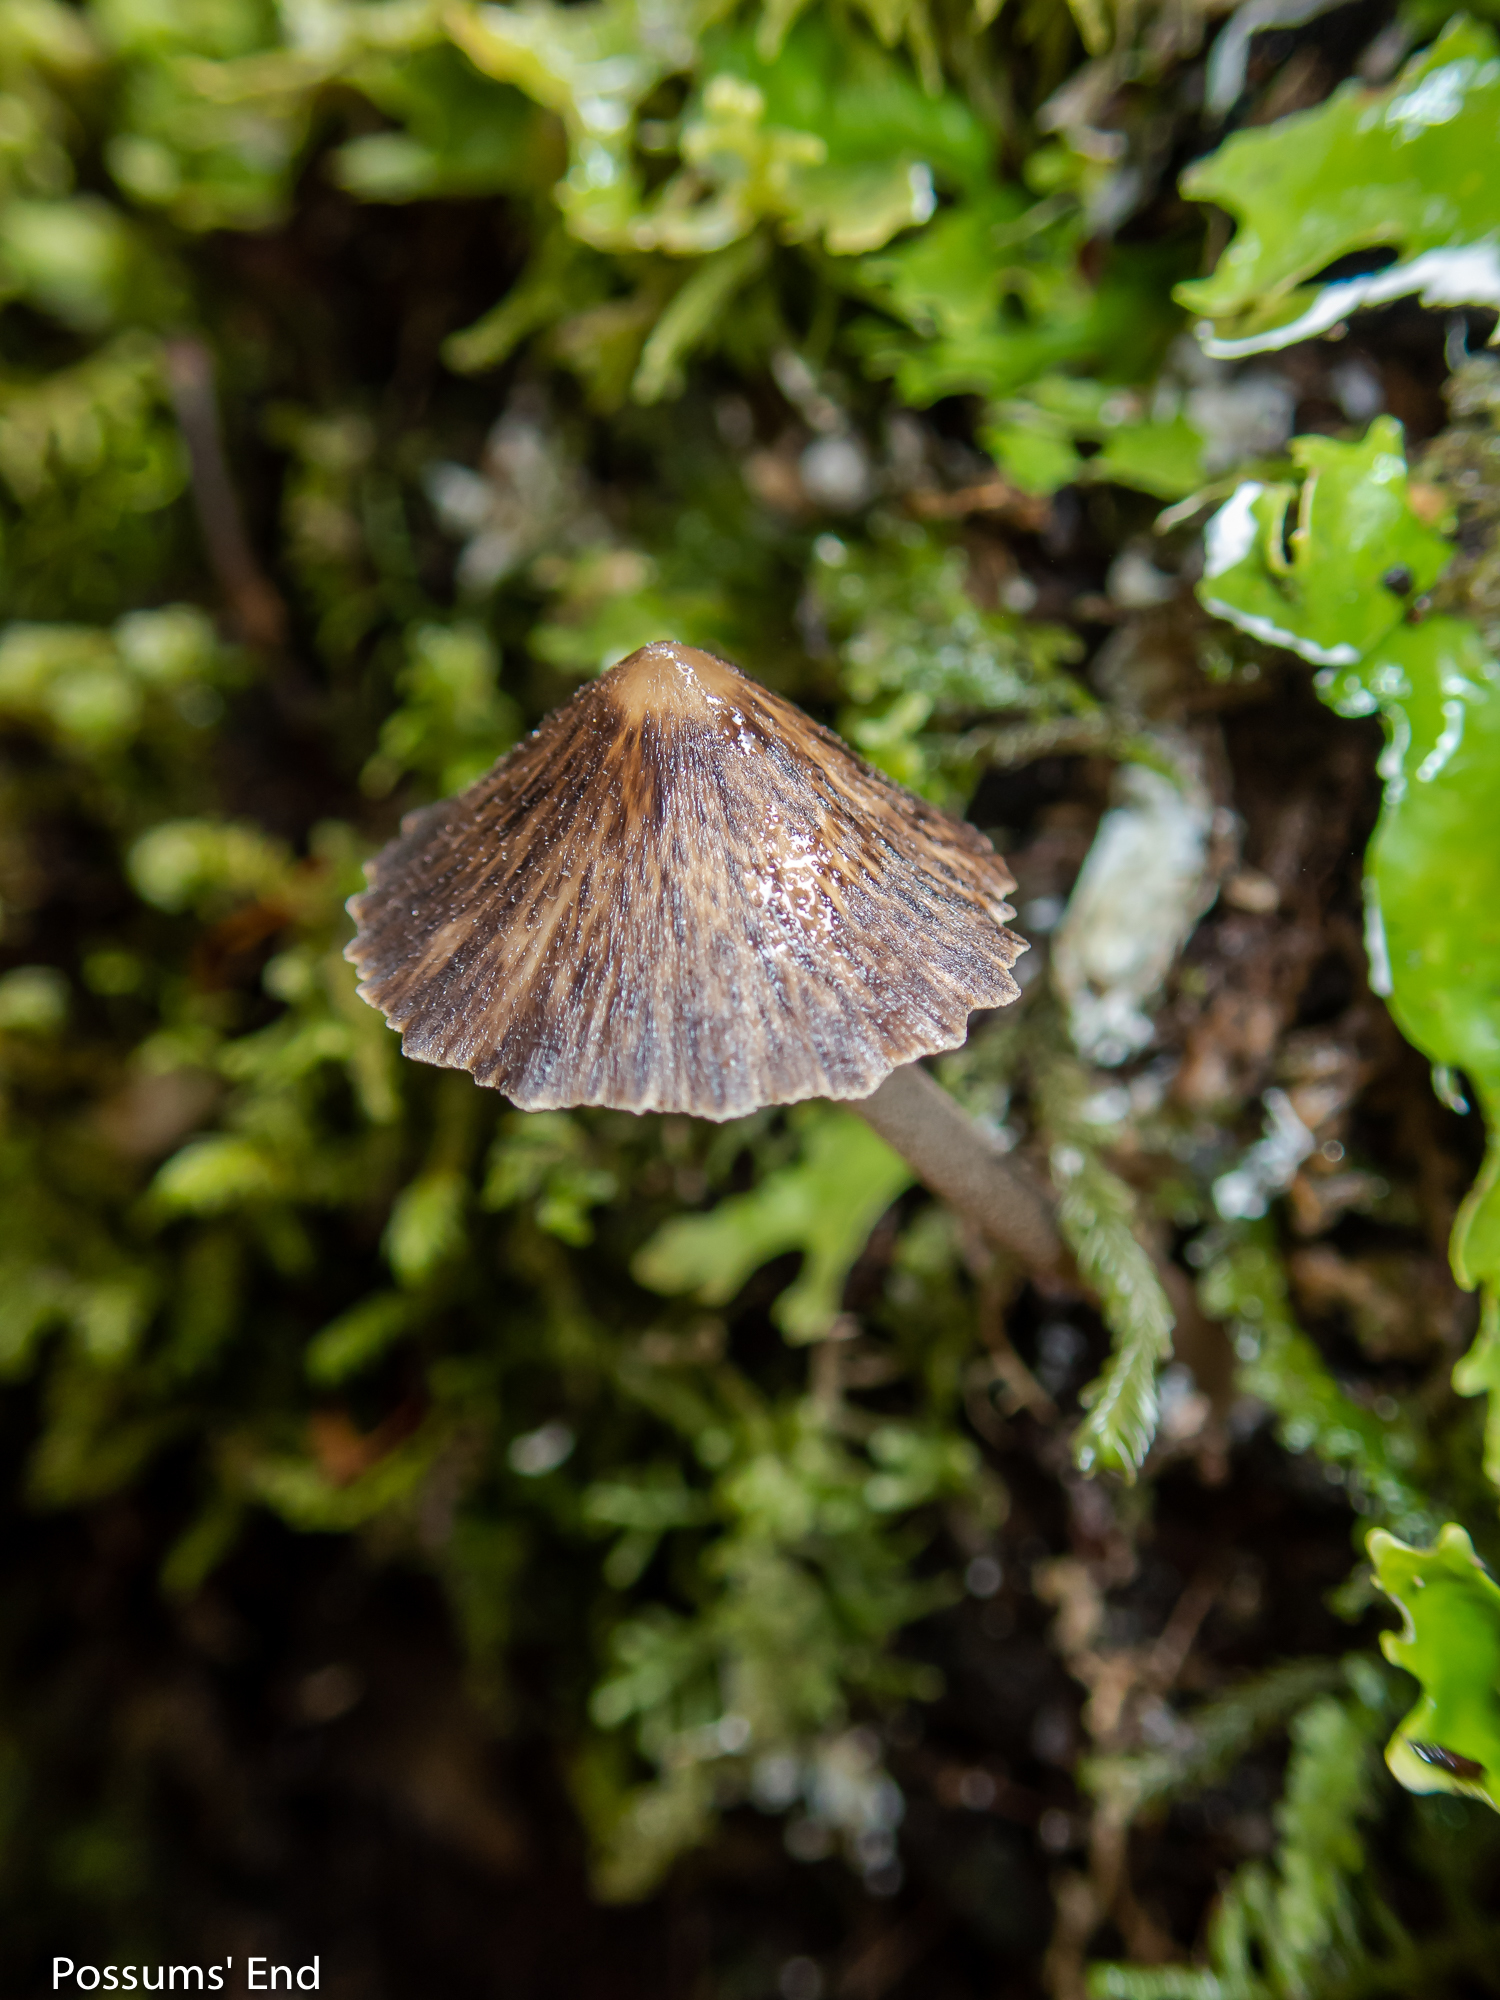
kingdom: Fungi
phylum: Basidiomycota
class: Agaricomycetes
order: Agaricales
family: Porotheleaceae
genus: Pseudohydropus
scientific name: Pseudohydropus parafunebris
